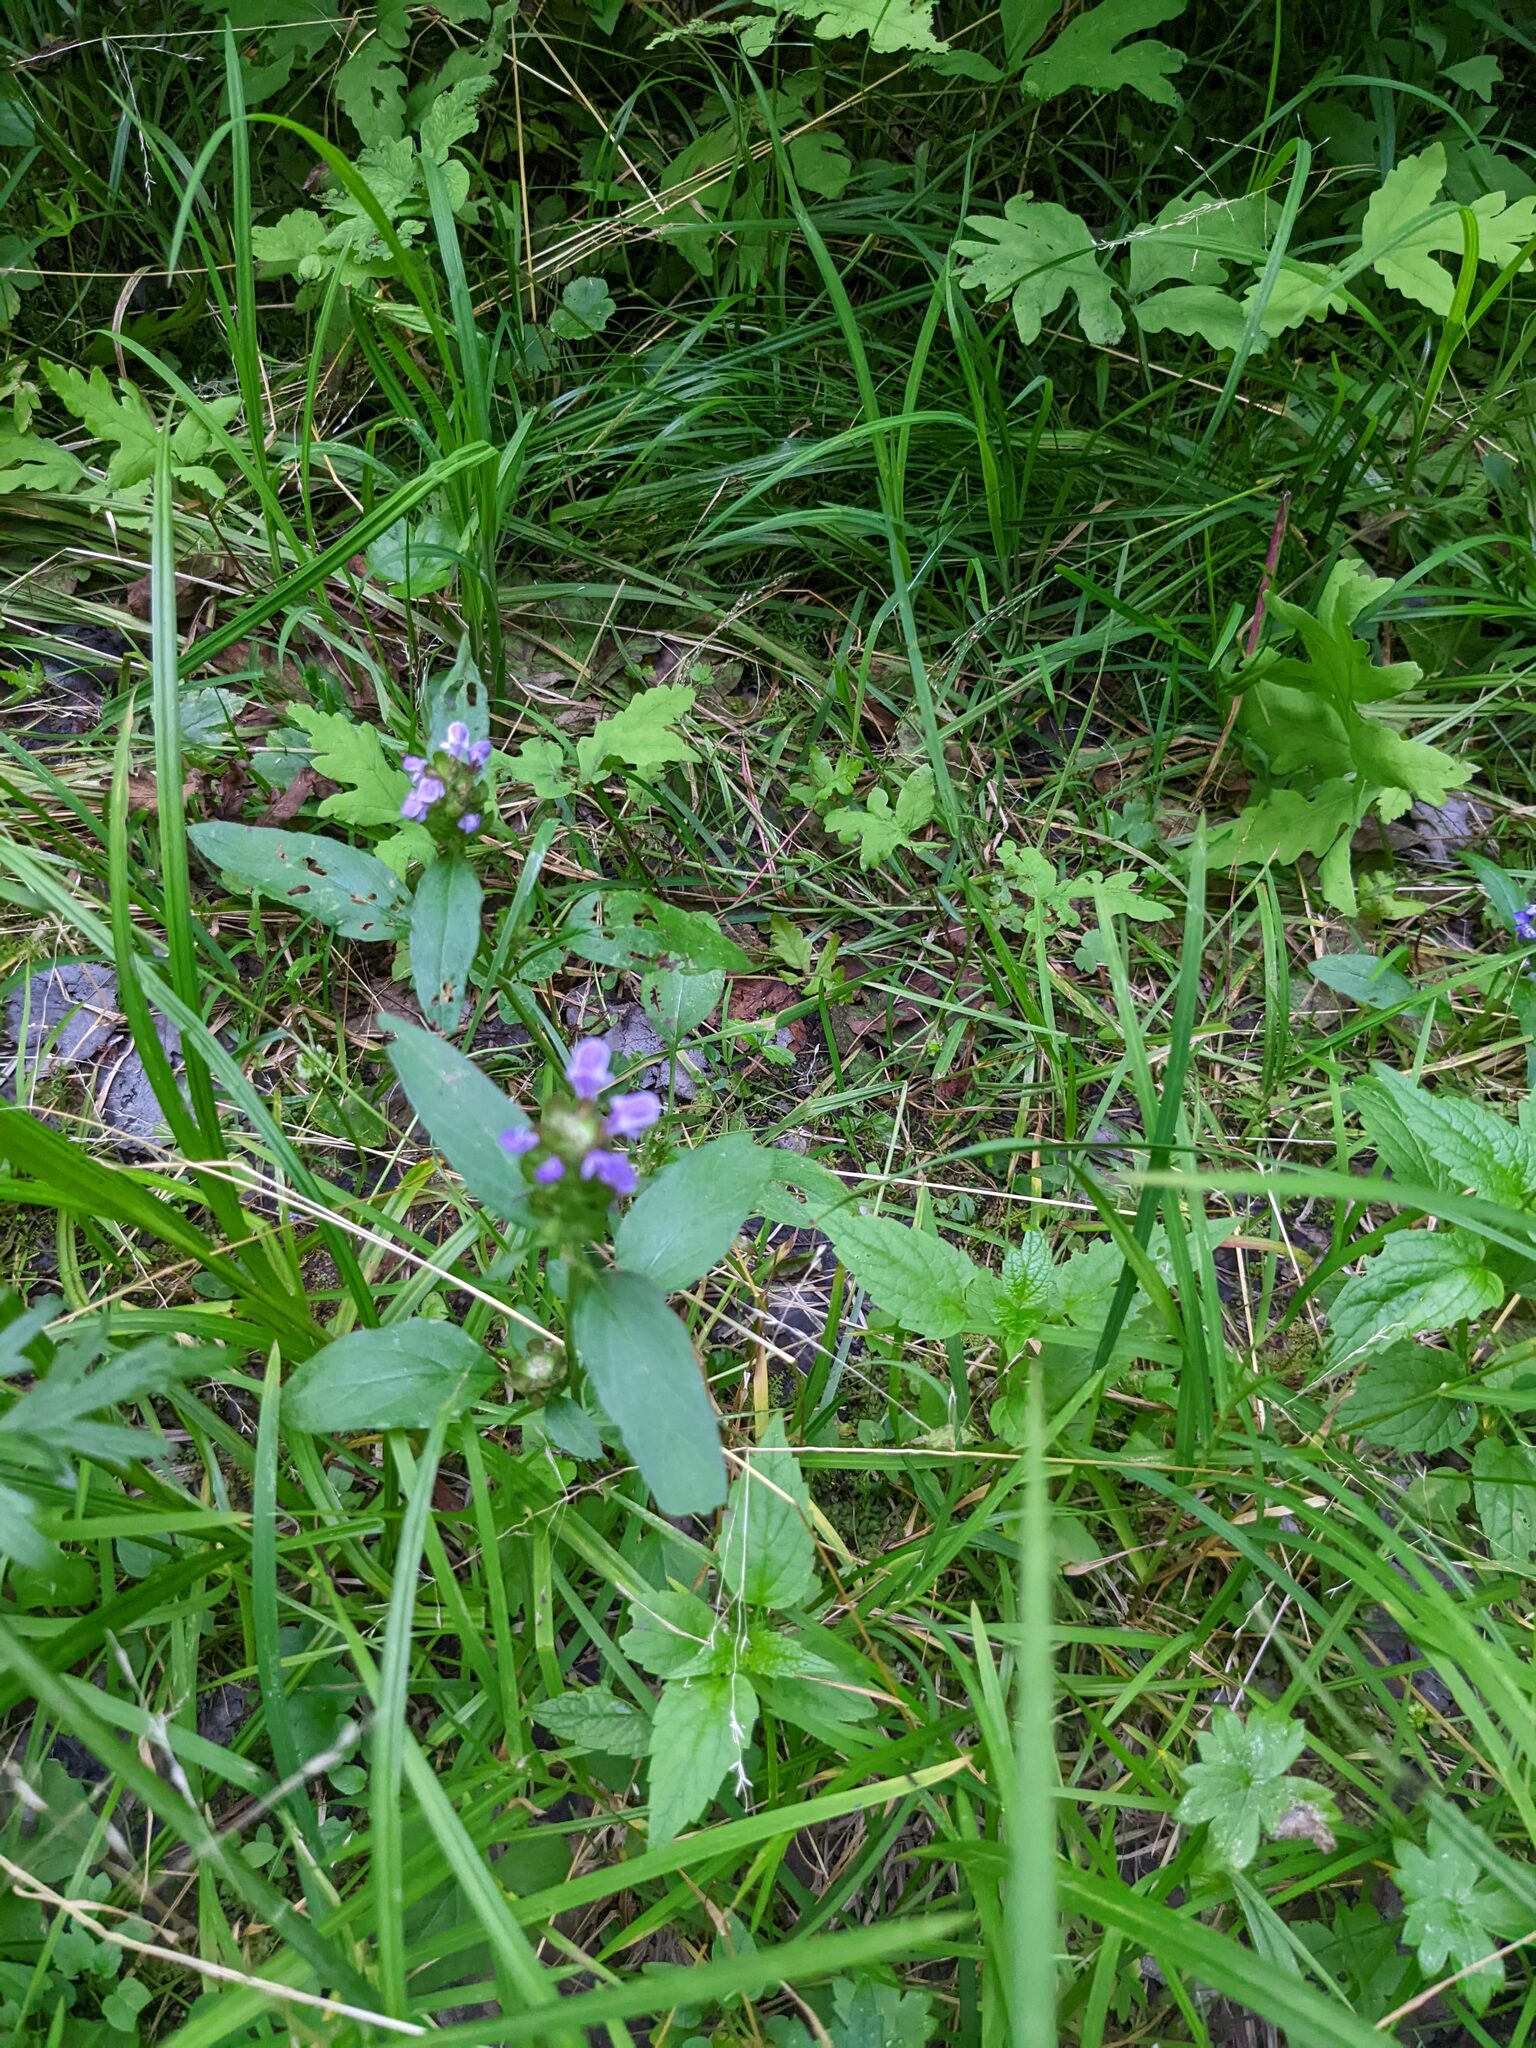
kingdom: Plantae
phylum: Tracheophyta
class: Magnoliopsida
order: Lamiales
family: Lamiaceae
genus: Prunella
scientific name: Prunella vulgaris
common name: Heal-all
